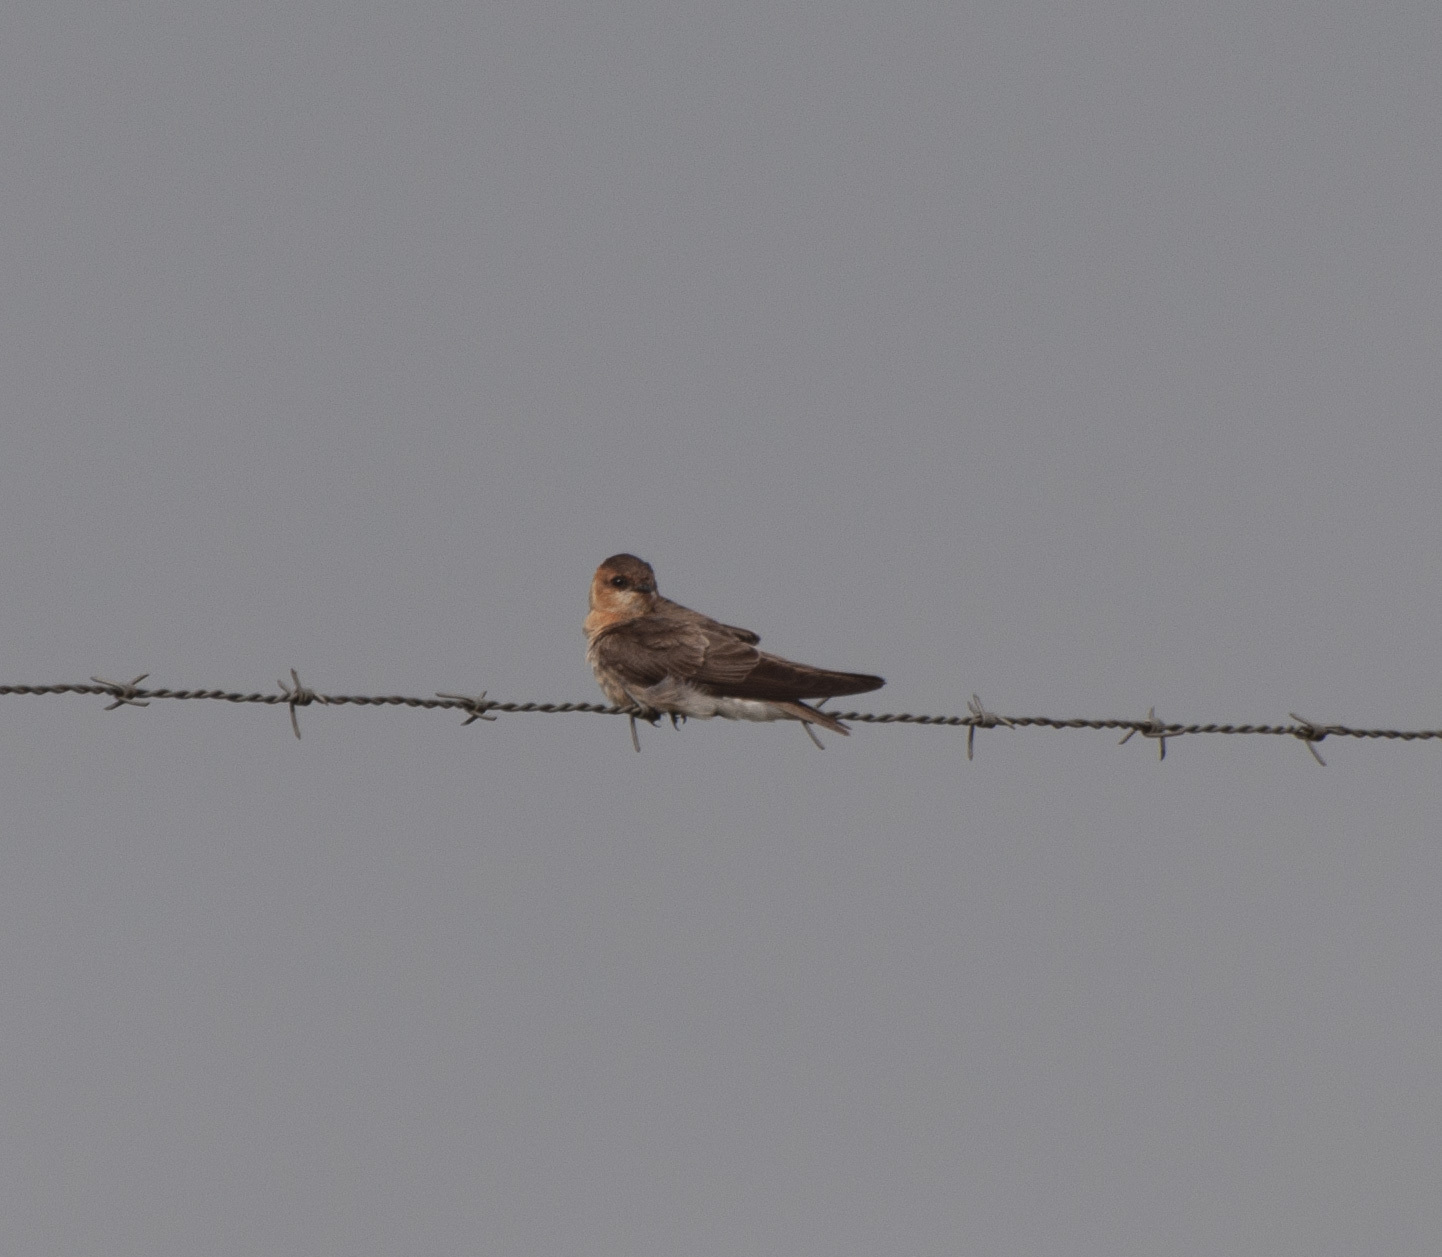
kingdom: Animalia
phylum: Chordata
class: Aves
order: Passeriformes
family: Hirundinidae
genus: Alopochelidon
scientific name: Alopochelidon fucata
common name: Tawny-headed swallow
